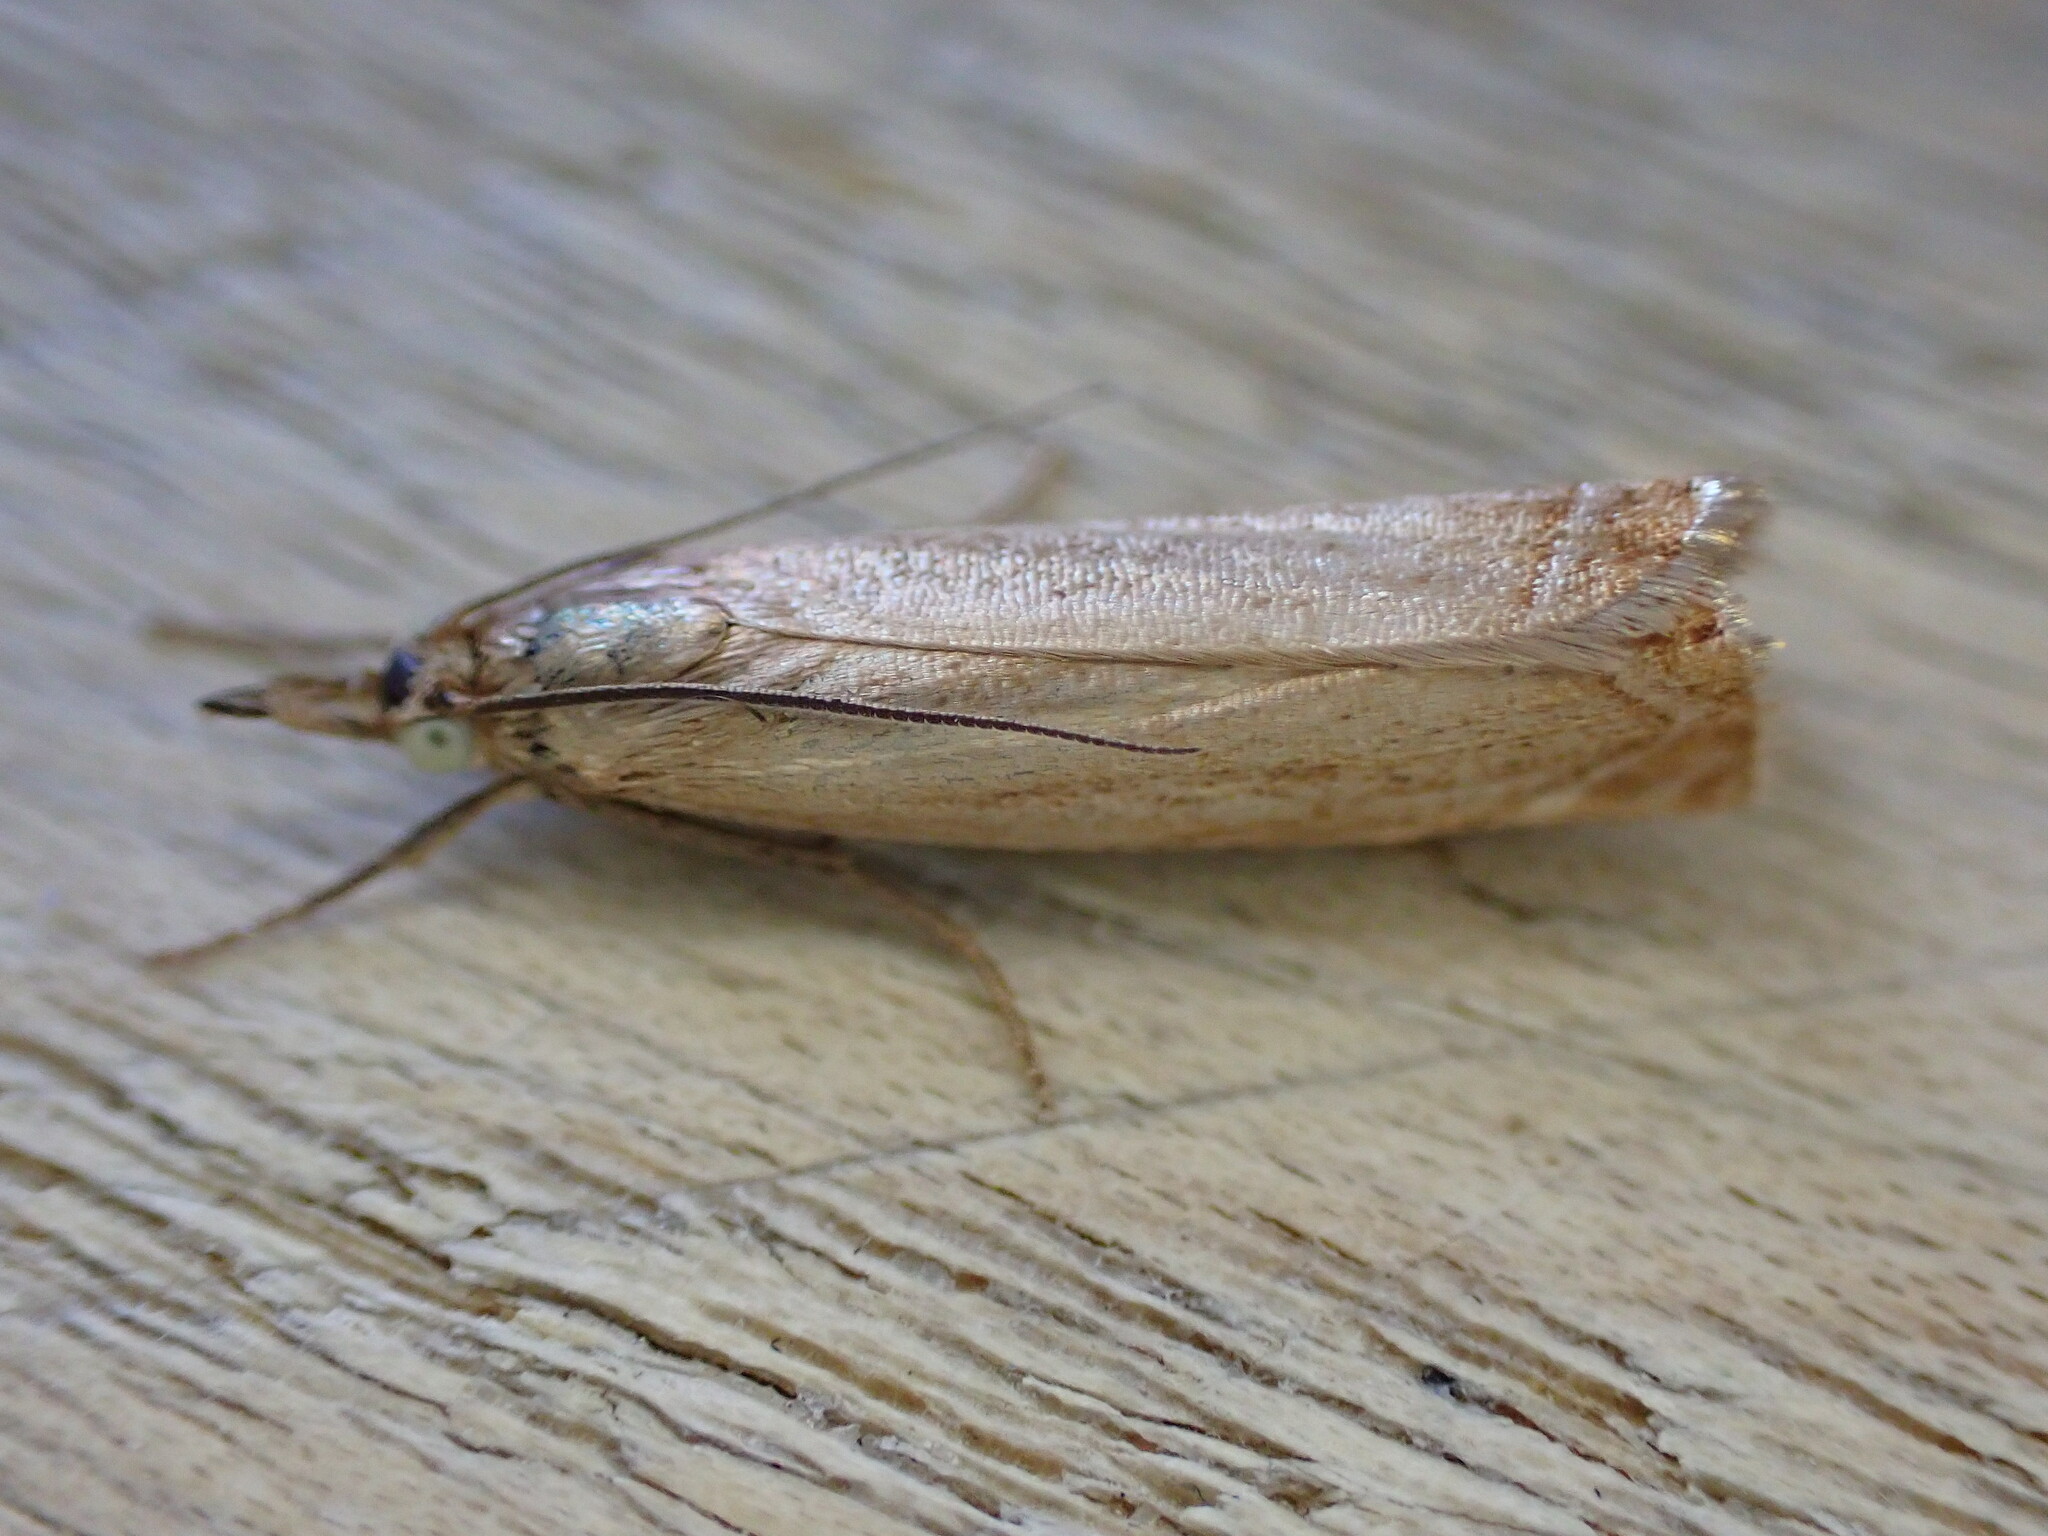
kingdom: Animalia
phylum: Arthropoda
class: Insecta
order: Lepidoptera
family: Crambidae
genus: Chrysoteuchia
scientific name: Chrysoteuchia culmella
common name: Garden grass-veneer
